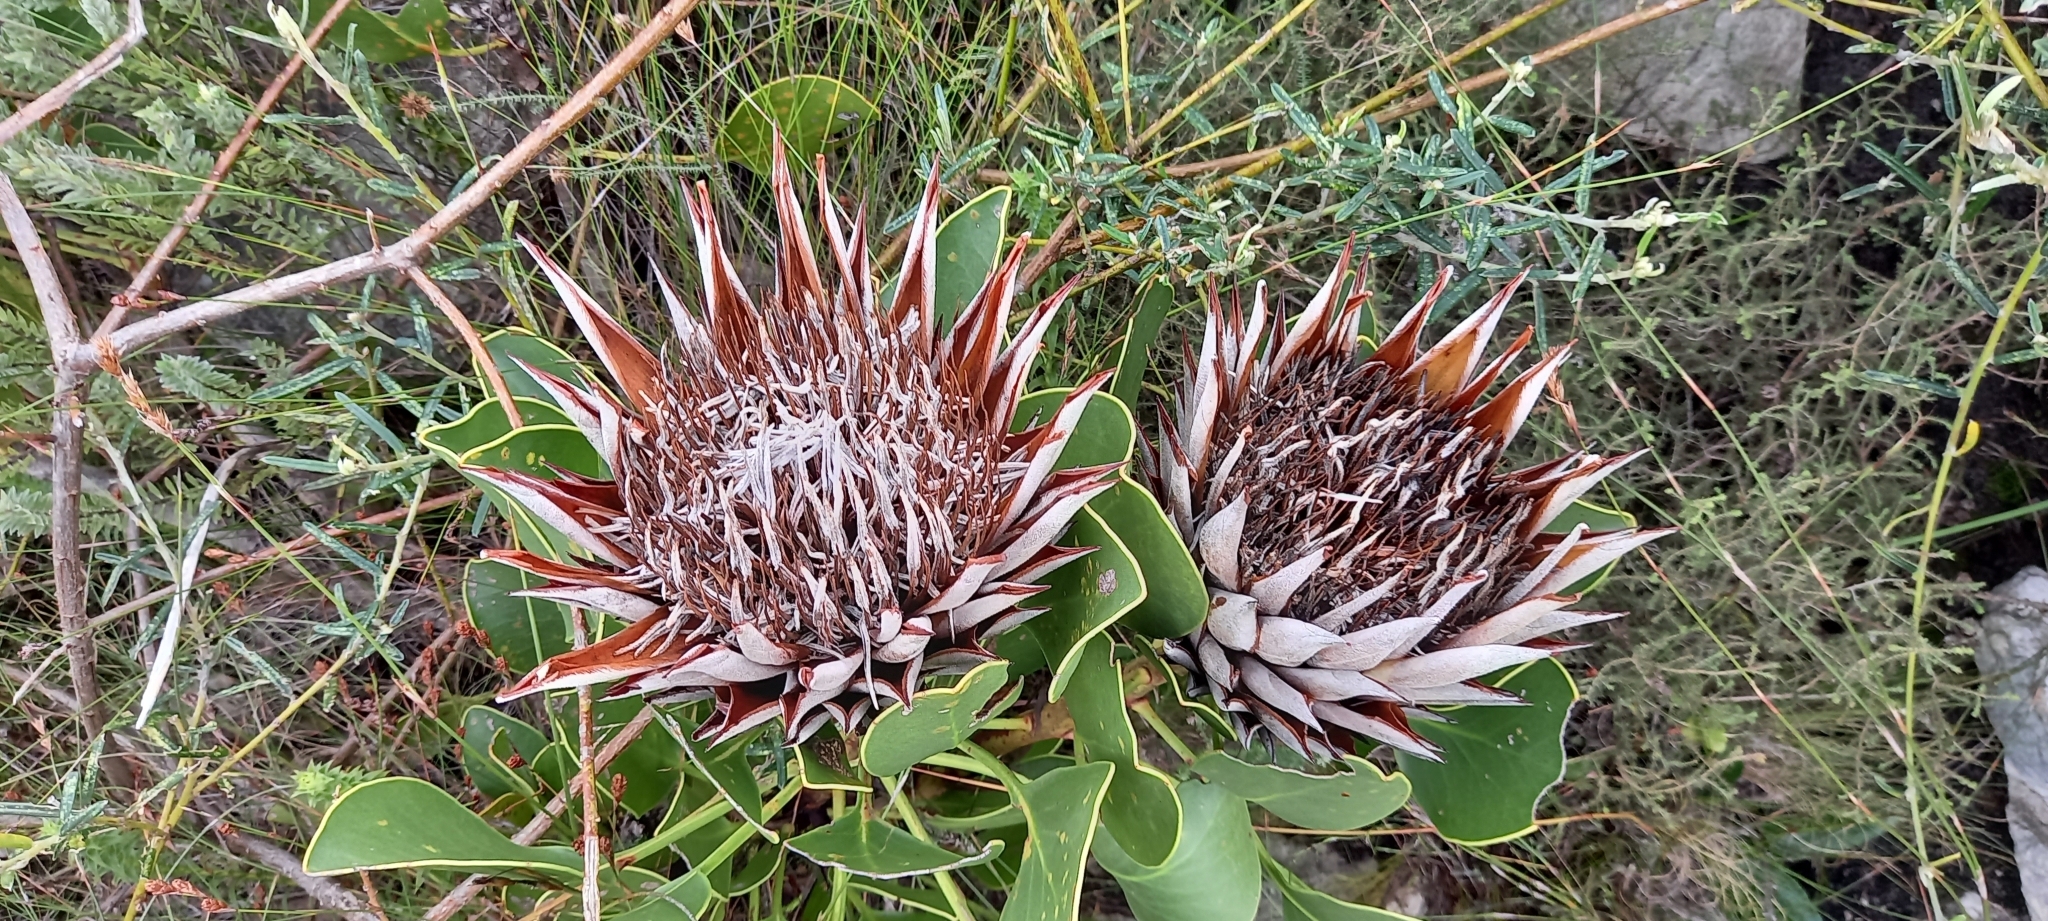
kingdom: Plantae
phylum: Tracheophyta
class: Magnoliopsida
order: Proteales
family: Proteaceae
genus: Protea
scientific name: Protea cynaroides
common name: King protea
